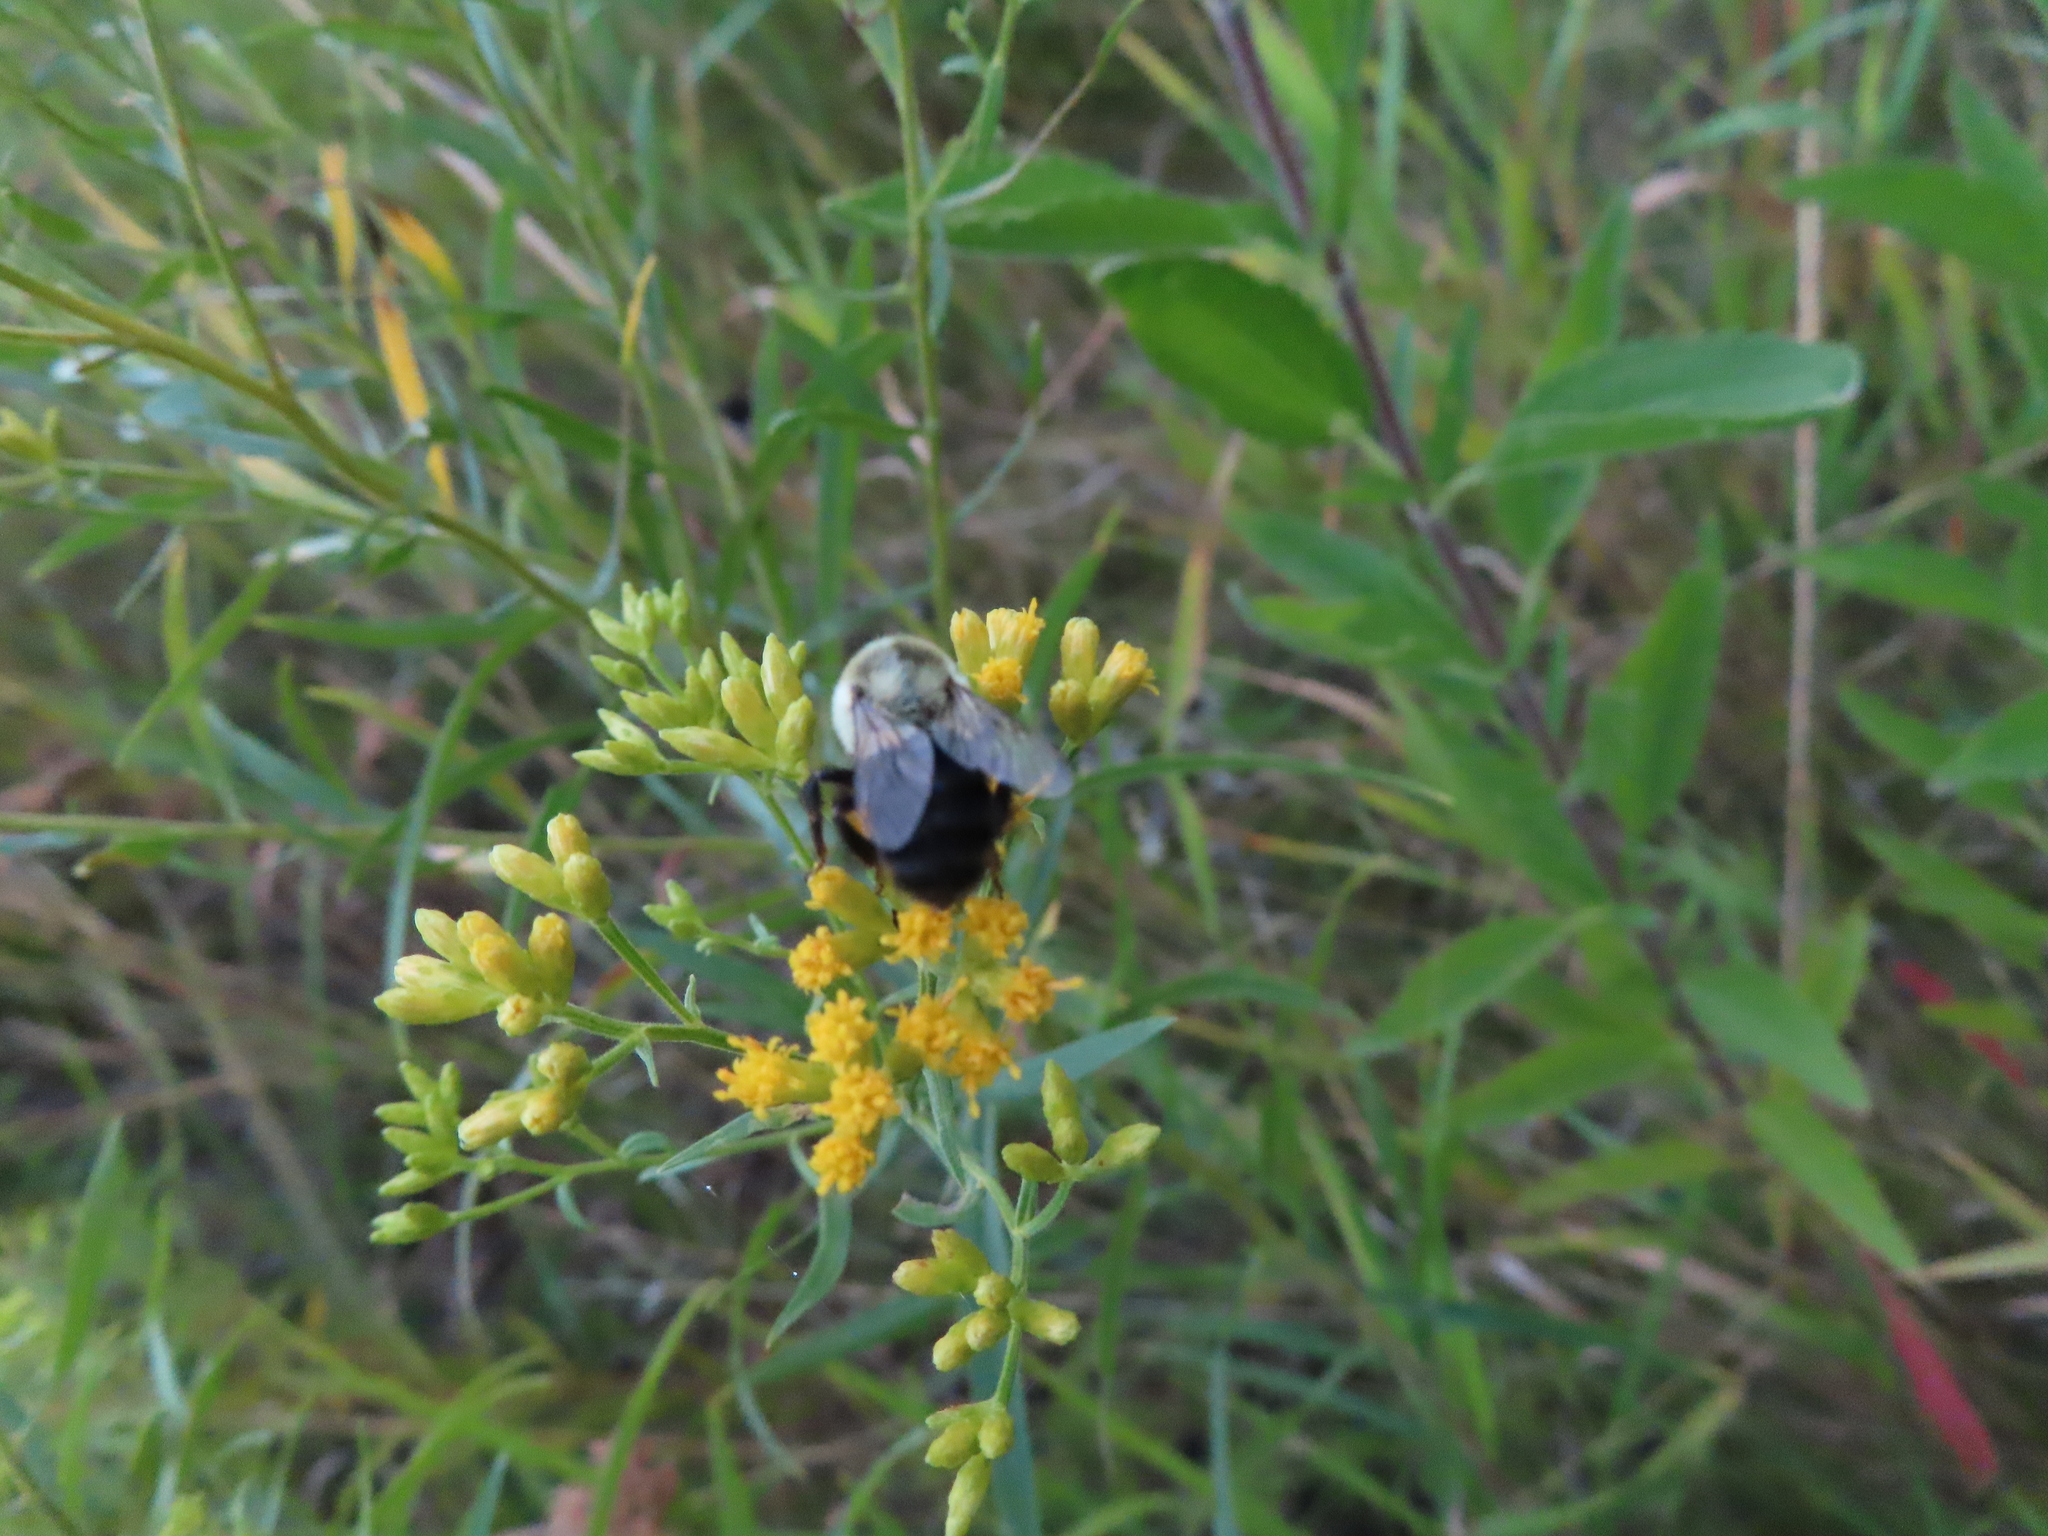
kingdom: Animalia
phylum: Arthropoda
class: Insecta
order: Hymenoptera
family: Apidae
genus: Bombus
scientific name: Bombus impatiens
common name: Common eastern bumble bee
